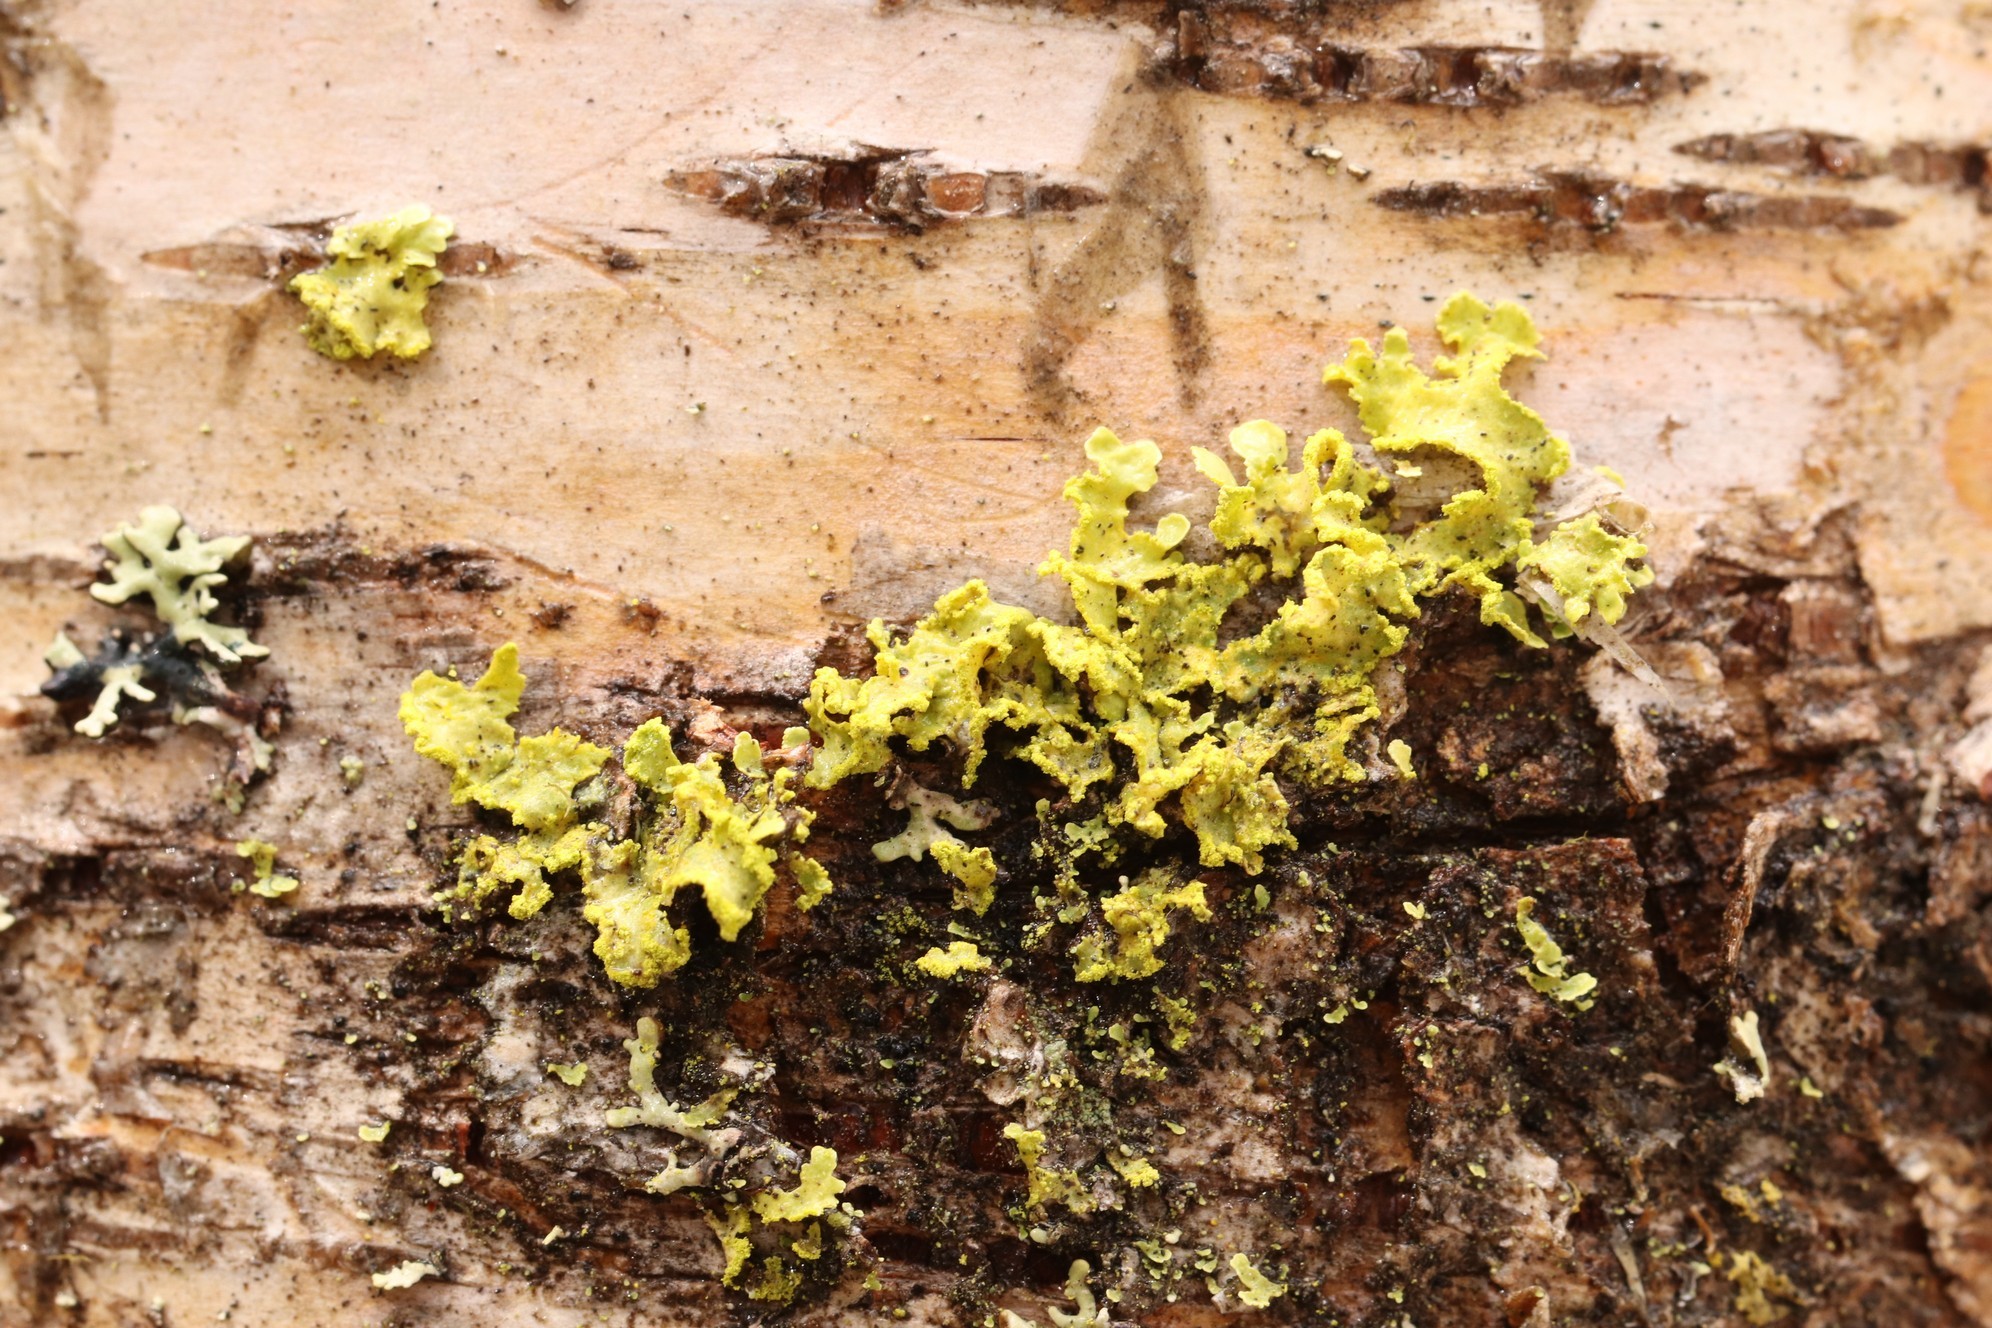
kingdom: Fungi
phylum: Ascomycota
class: Lecanoromycetes
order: Lecanorales
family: Parmeliaceae
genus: Vulpicida
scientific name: Vulpicida pinastri
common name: Powdered sunshine lichen
